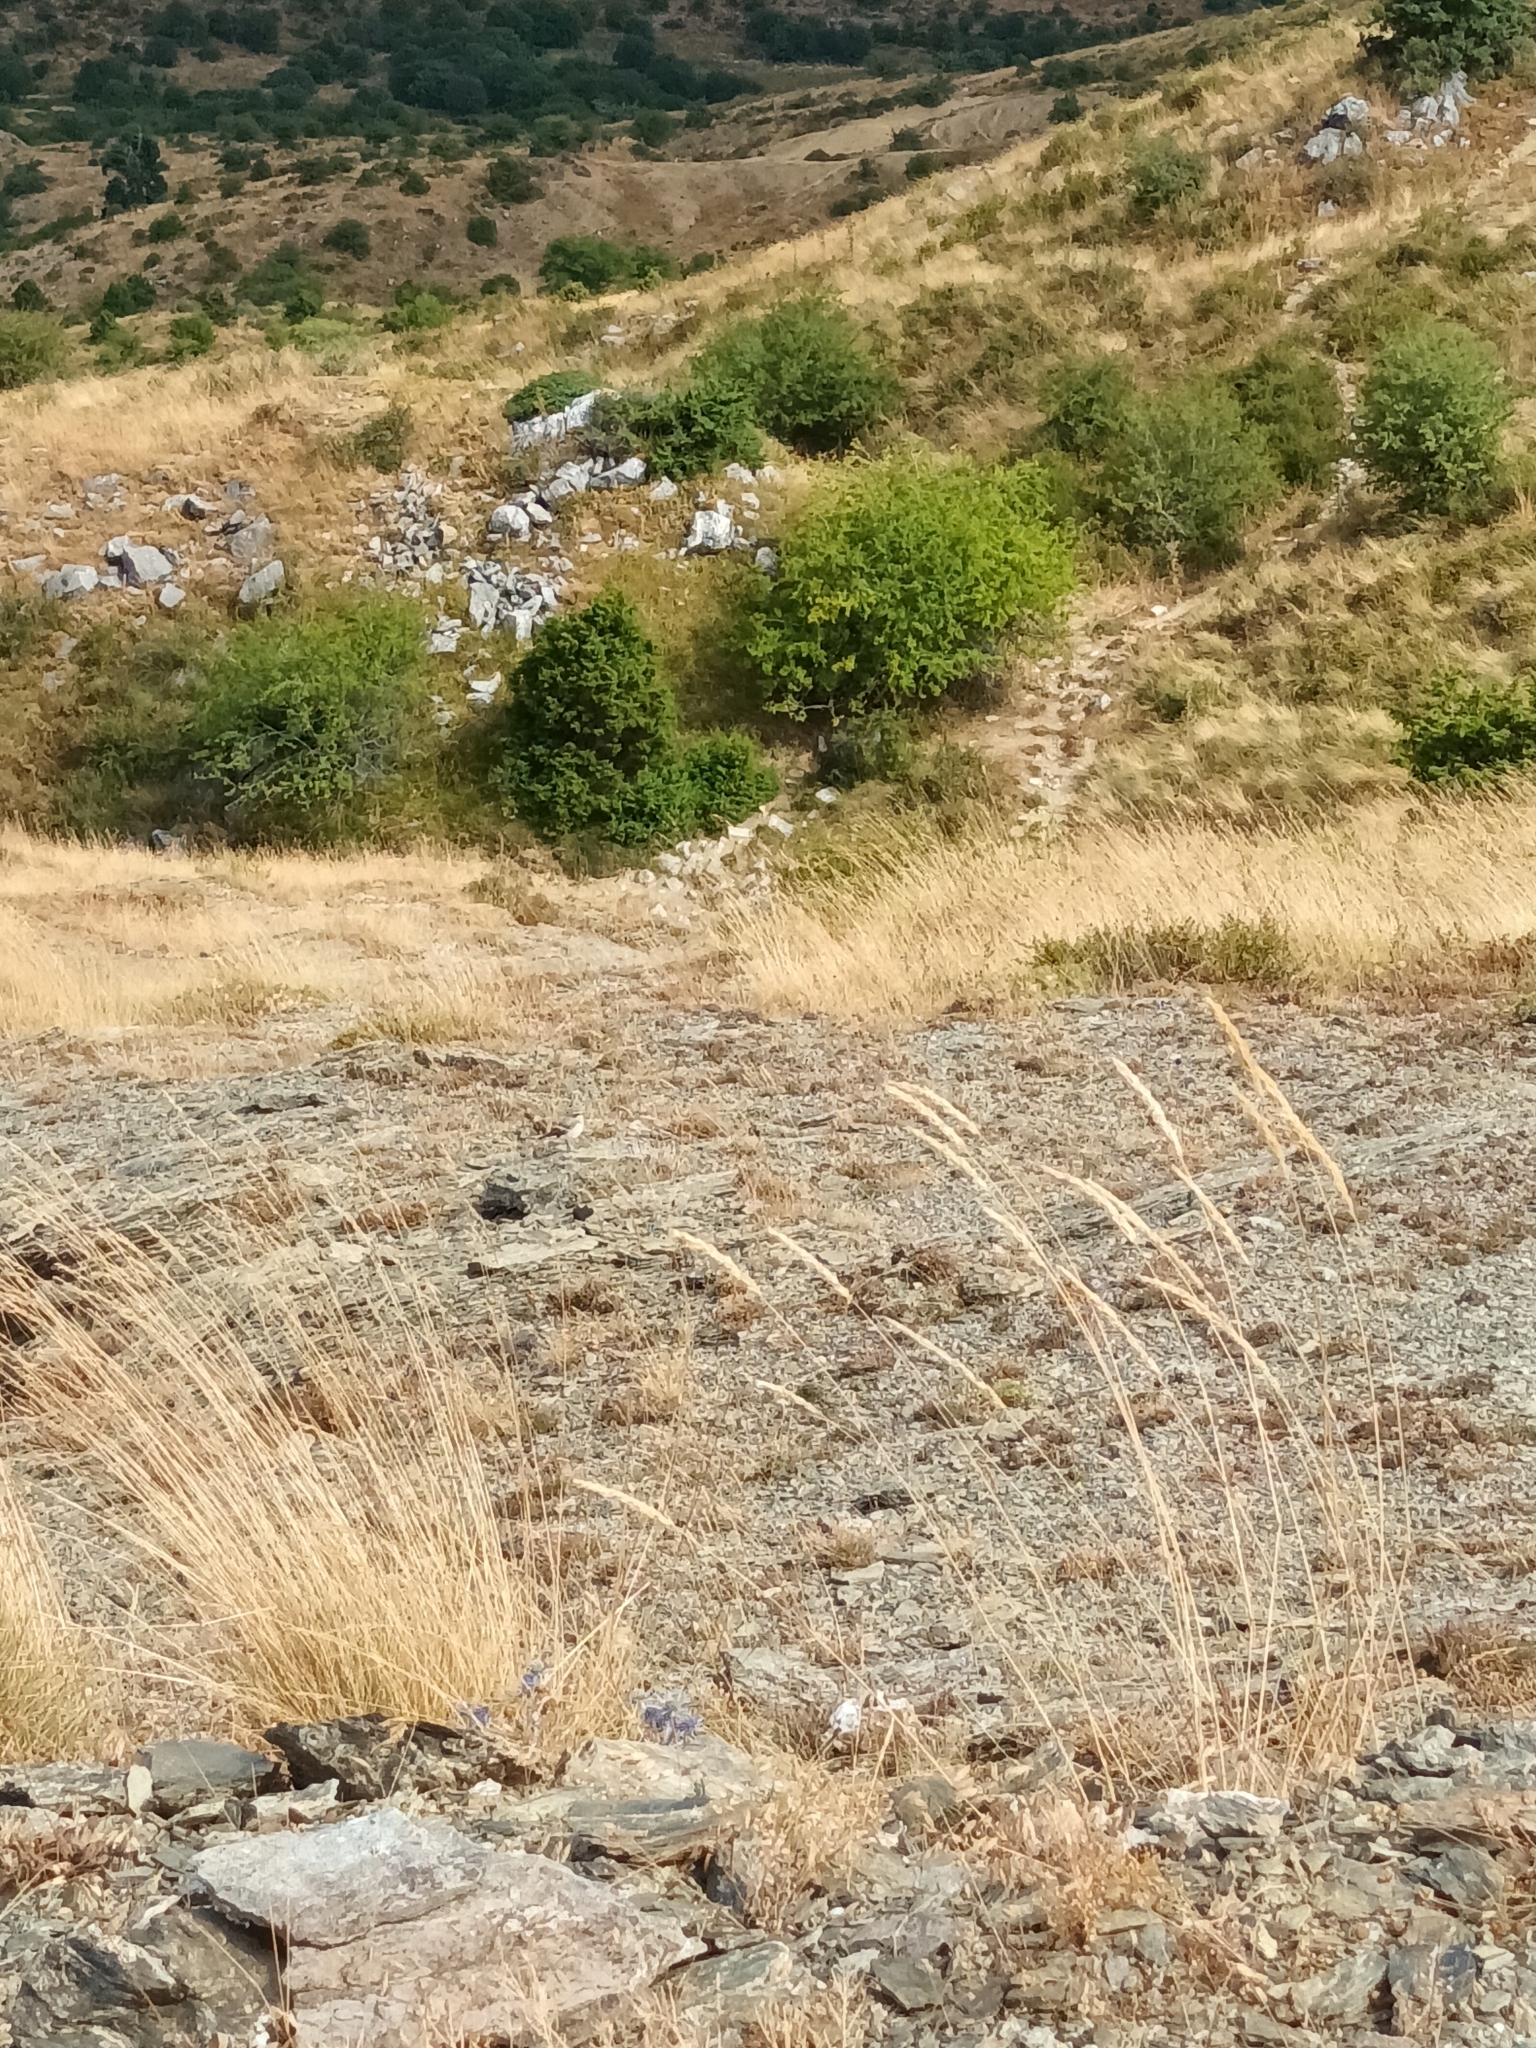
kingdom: Animalia
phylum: Chordata
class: Aves
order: Passeriformes
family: Muscicapidae
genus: Oenanthe
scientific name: Oenanthe oenanthe
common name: Northern wheatear
